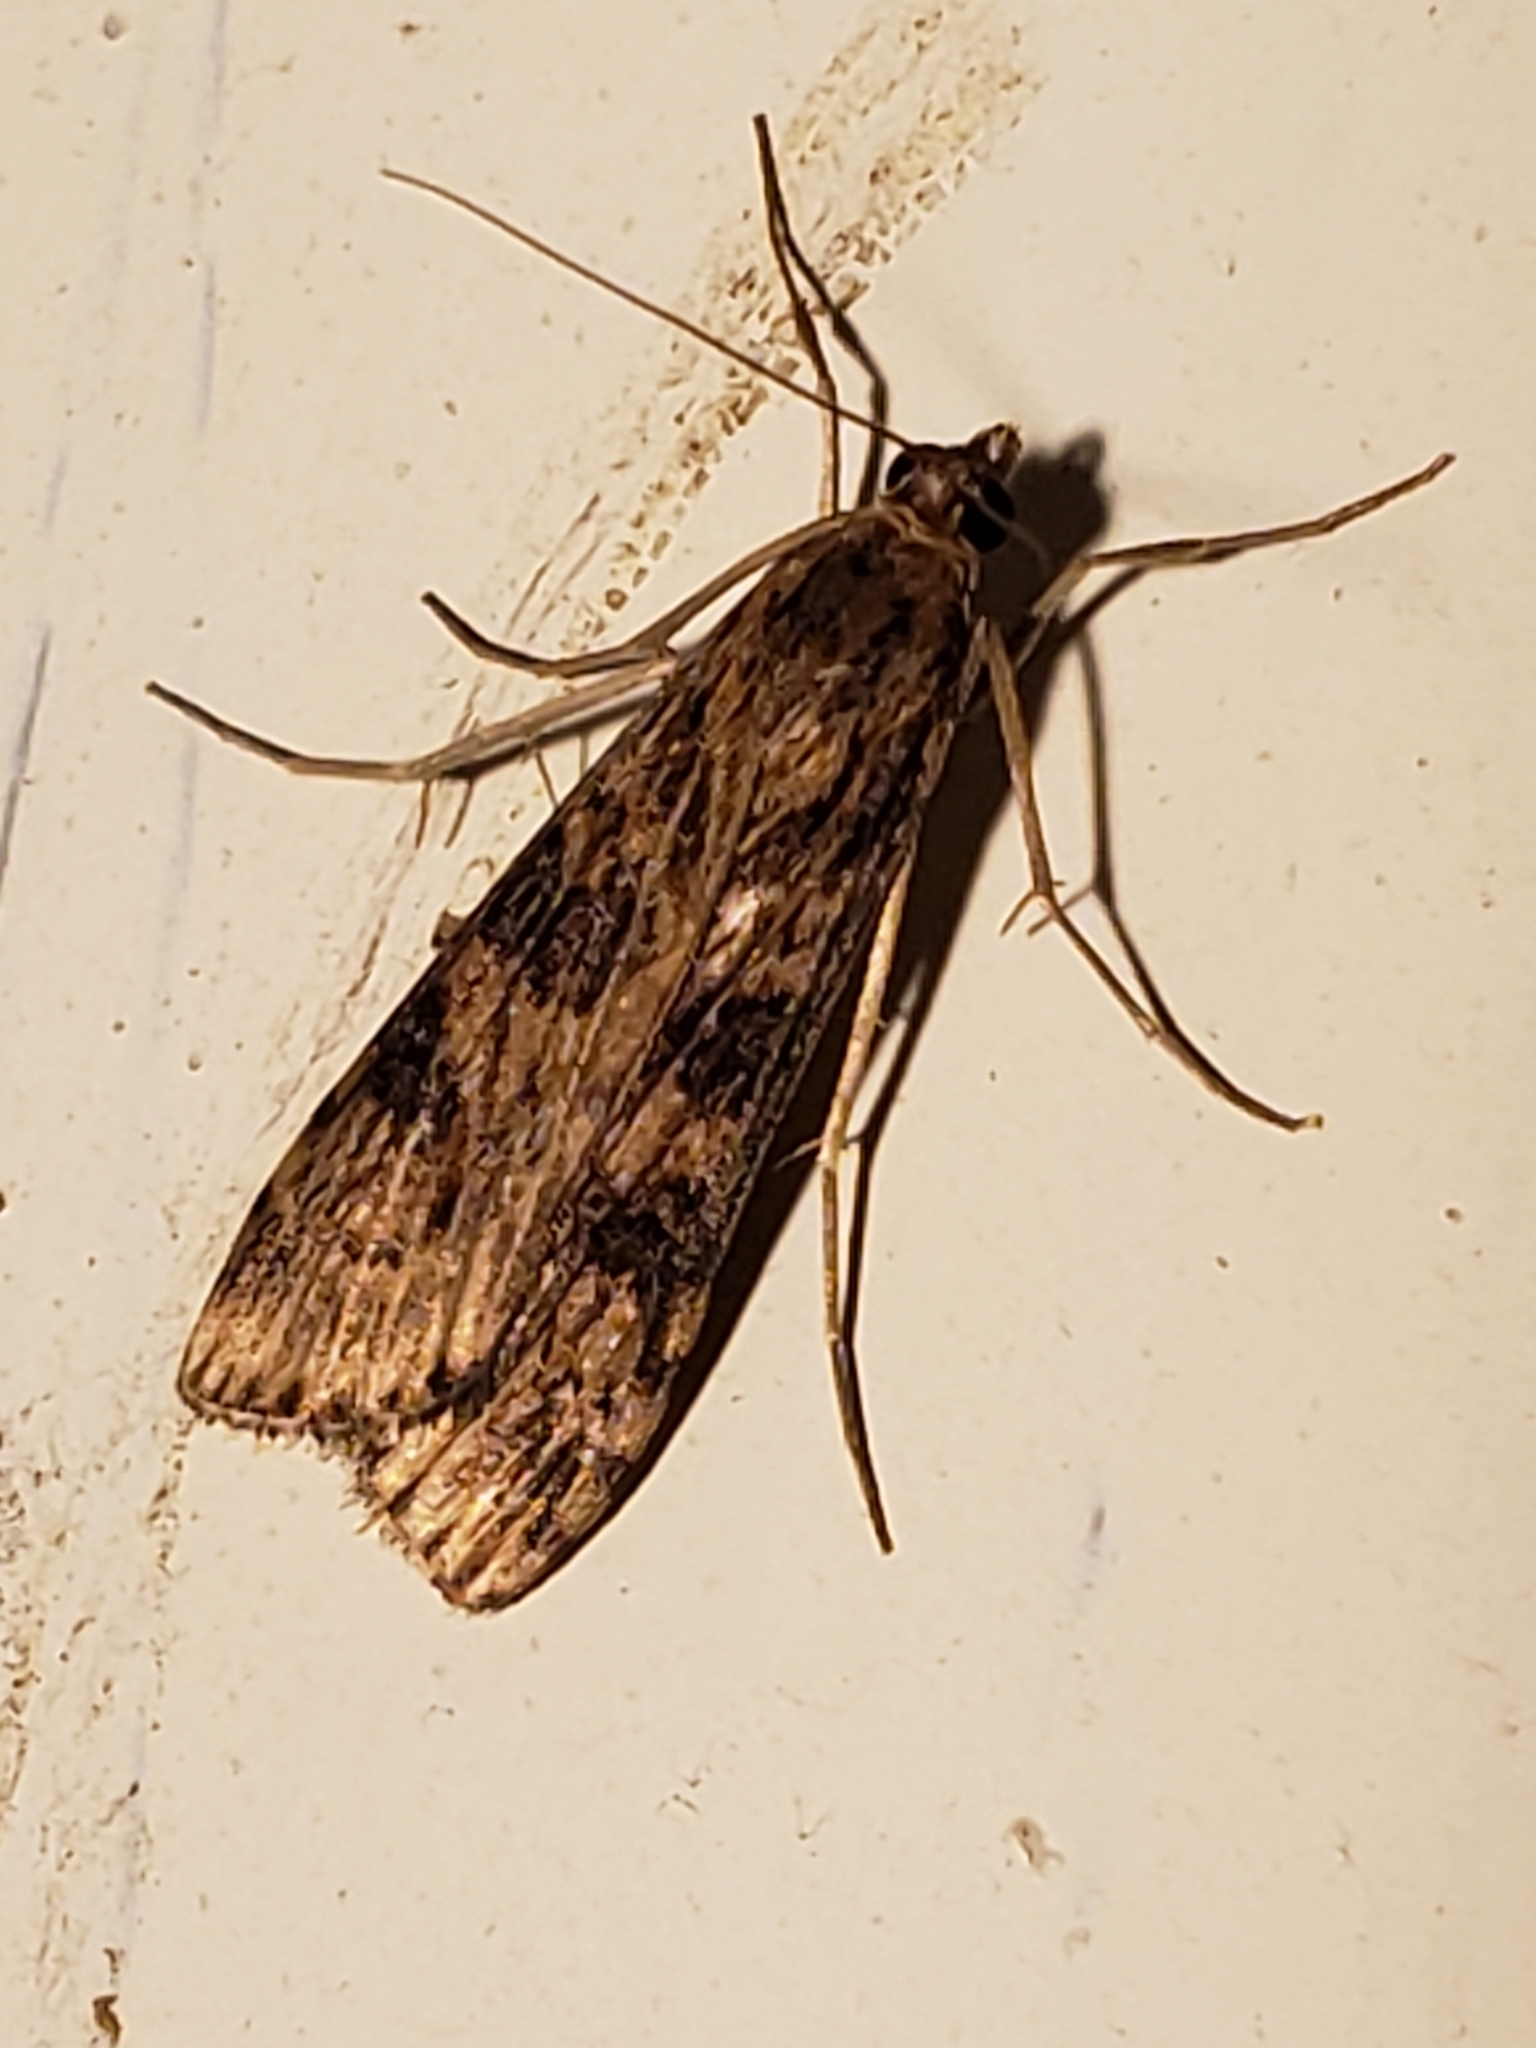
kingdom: Animalia
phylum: Arthropoda
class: Insecta
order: Lepidoptera
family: Crambidae
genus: Nomophila
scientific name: Nomophila nearctica
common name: American rush veneer
